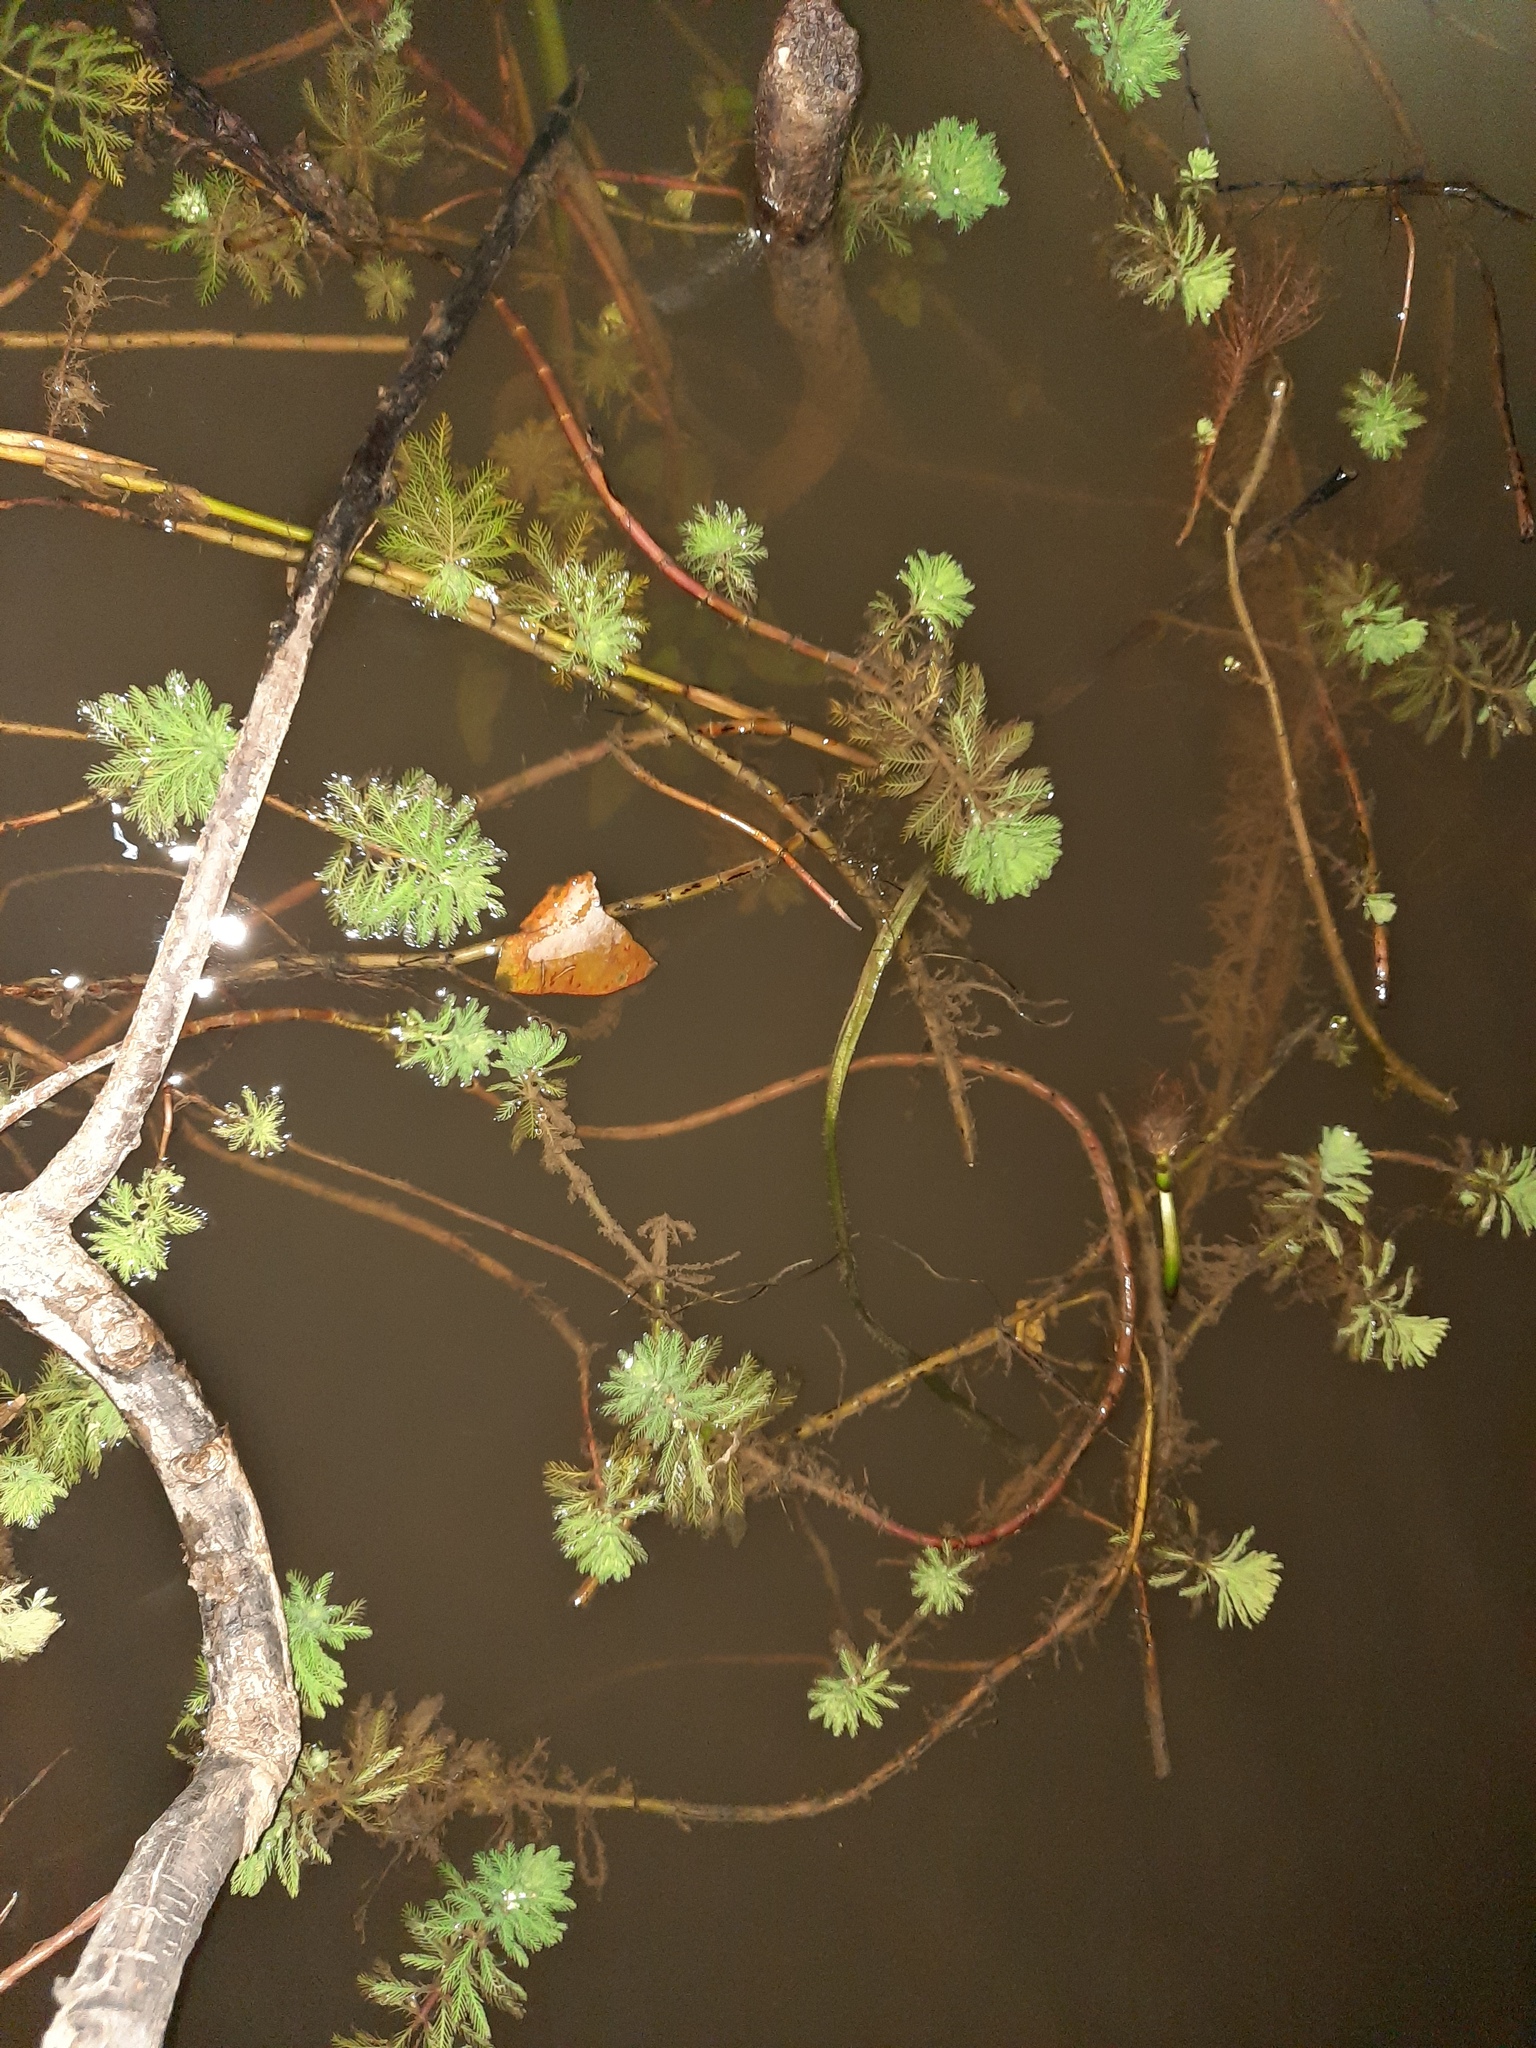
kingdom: Plantae
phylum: Tracheophyta
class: Magnoliopsida
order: Saxifragales
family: Haloragaceae
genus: Myriophyllum
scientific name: Myriophyllum aquaticum
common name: Parrot's feather
